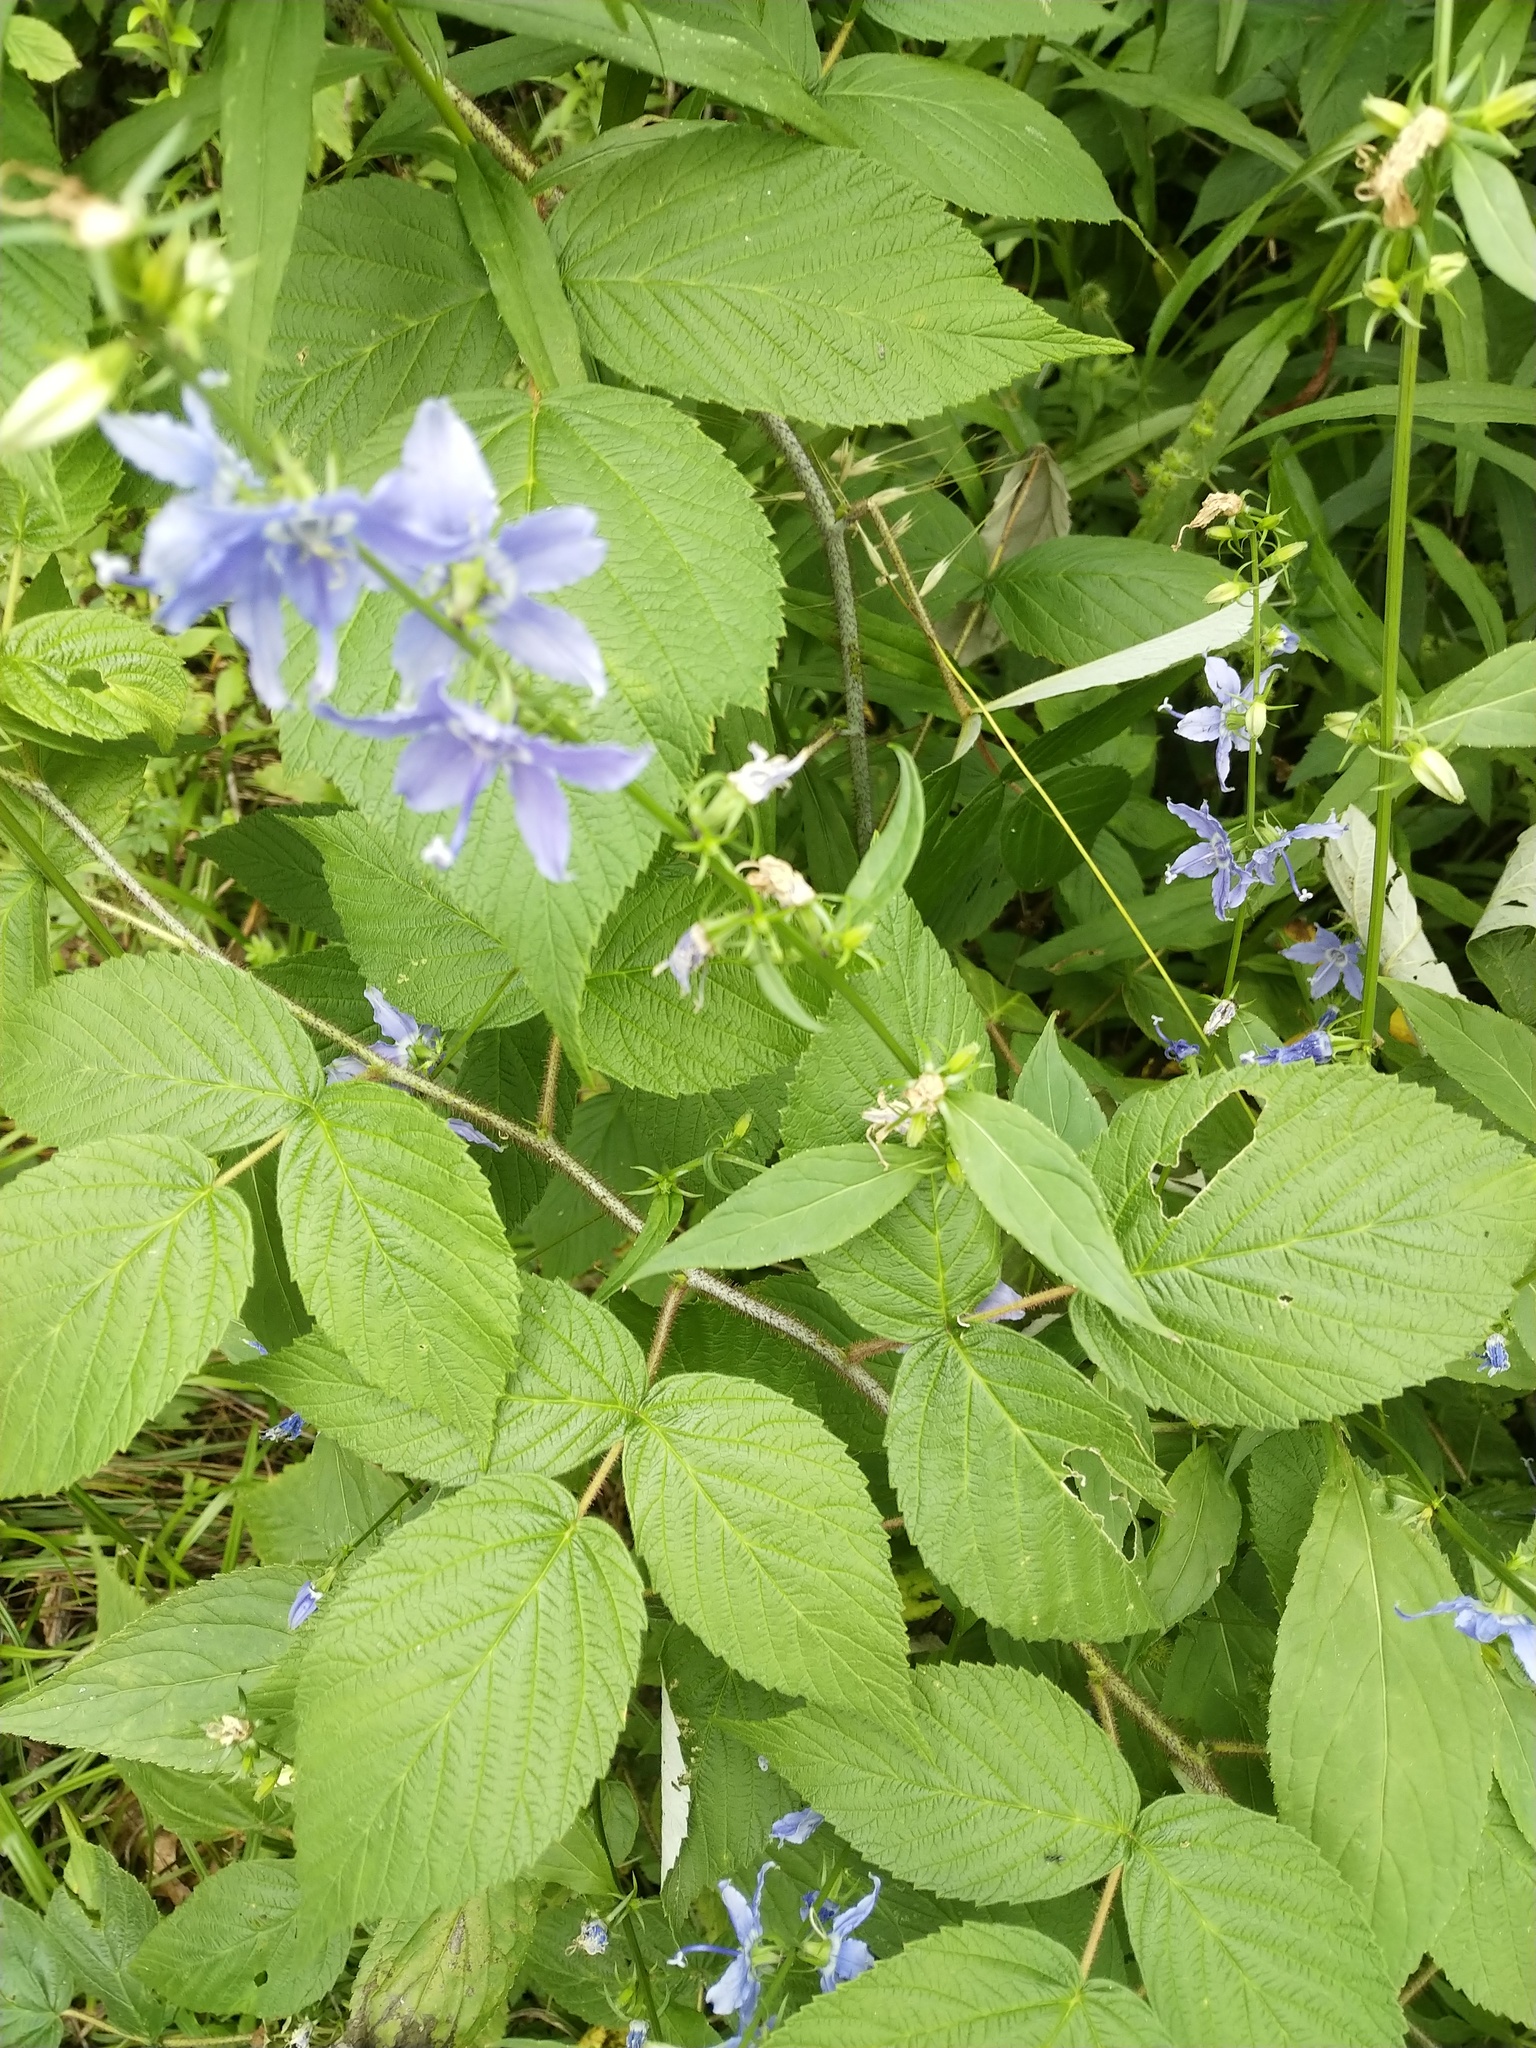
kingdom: Plantae
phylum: Tracheophyta
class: Magnoliopsida
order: Asterales
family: Campanulaceae
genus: Campanulastrum
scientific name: Campanulastrum americanum
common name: American bellflower
